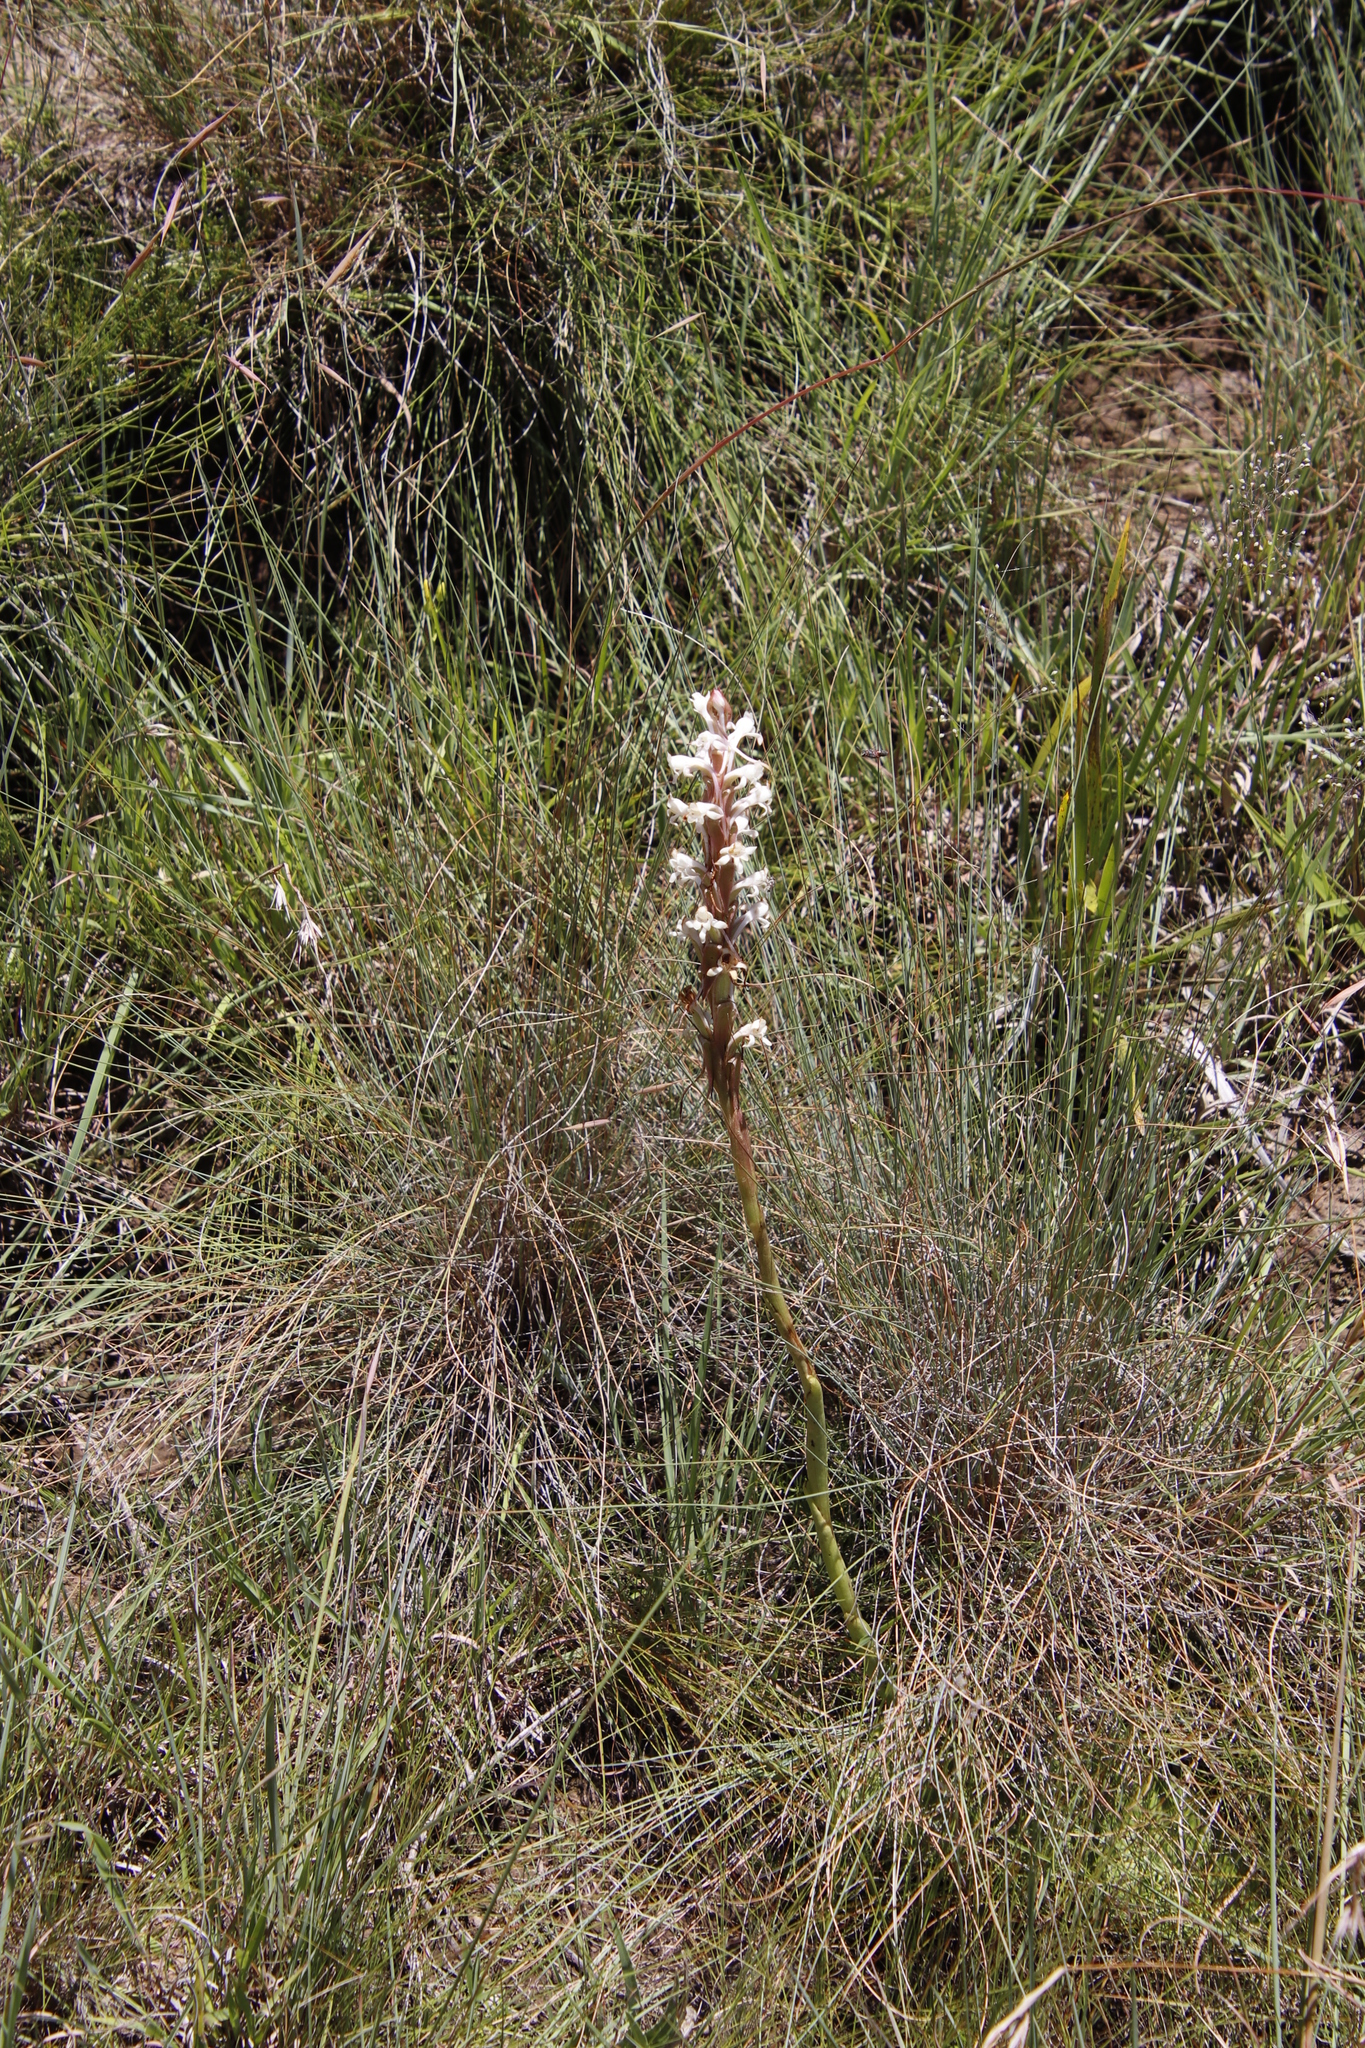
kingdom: Plantae
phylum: Tracheophyta
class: Liliopsida
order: Asparagales
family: Orchidaceae
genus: Satyrium
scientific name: Satyrium longicauda
